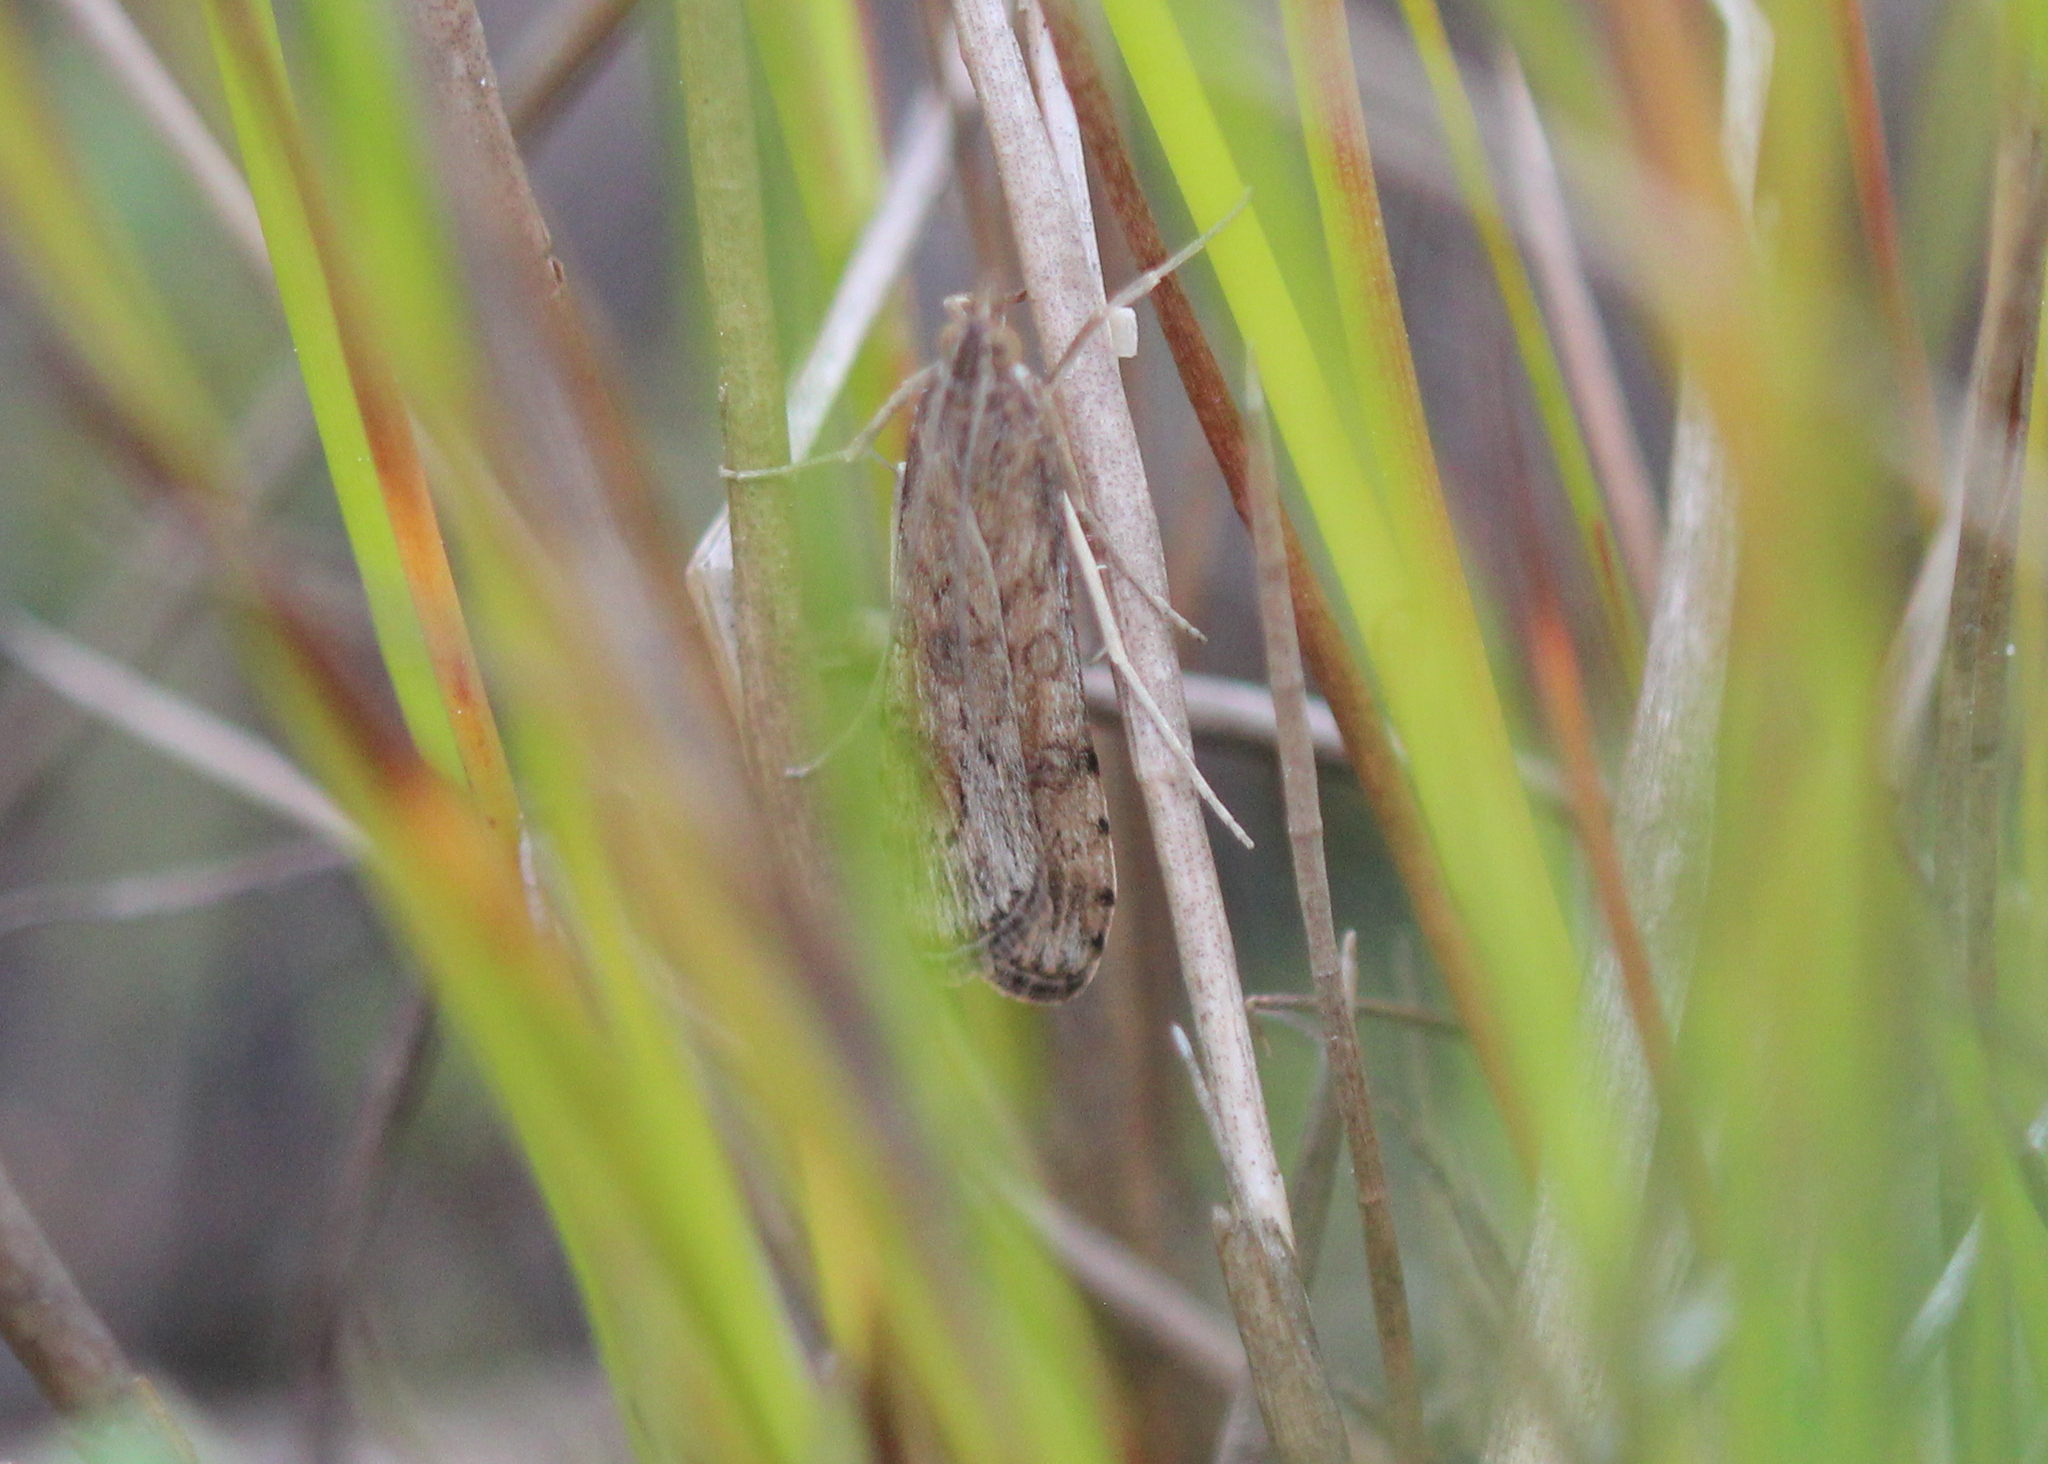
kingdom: Animalia
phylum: Arthropoda
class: Insecta
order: Lepidoptera
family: Crambidae
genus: Nomophila
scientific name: Nomophila nearctica
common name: American rush veneer
